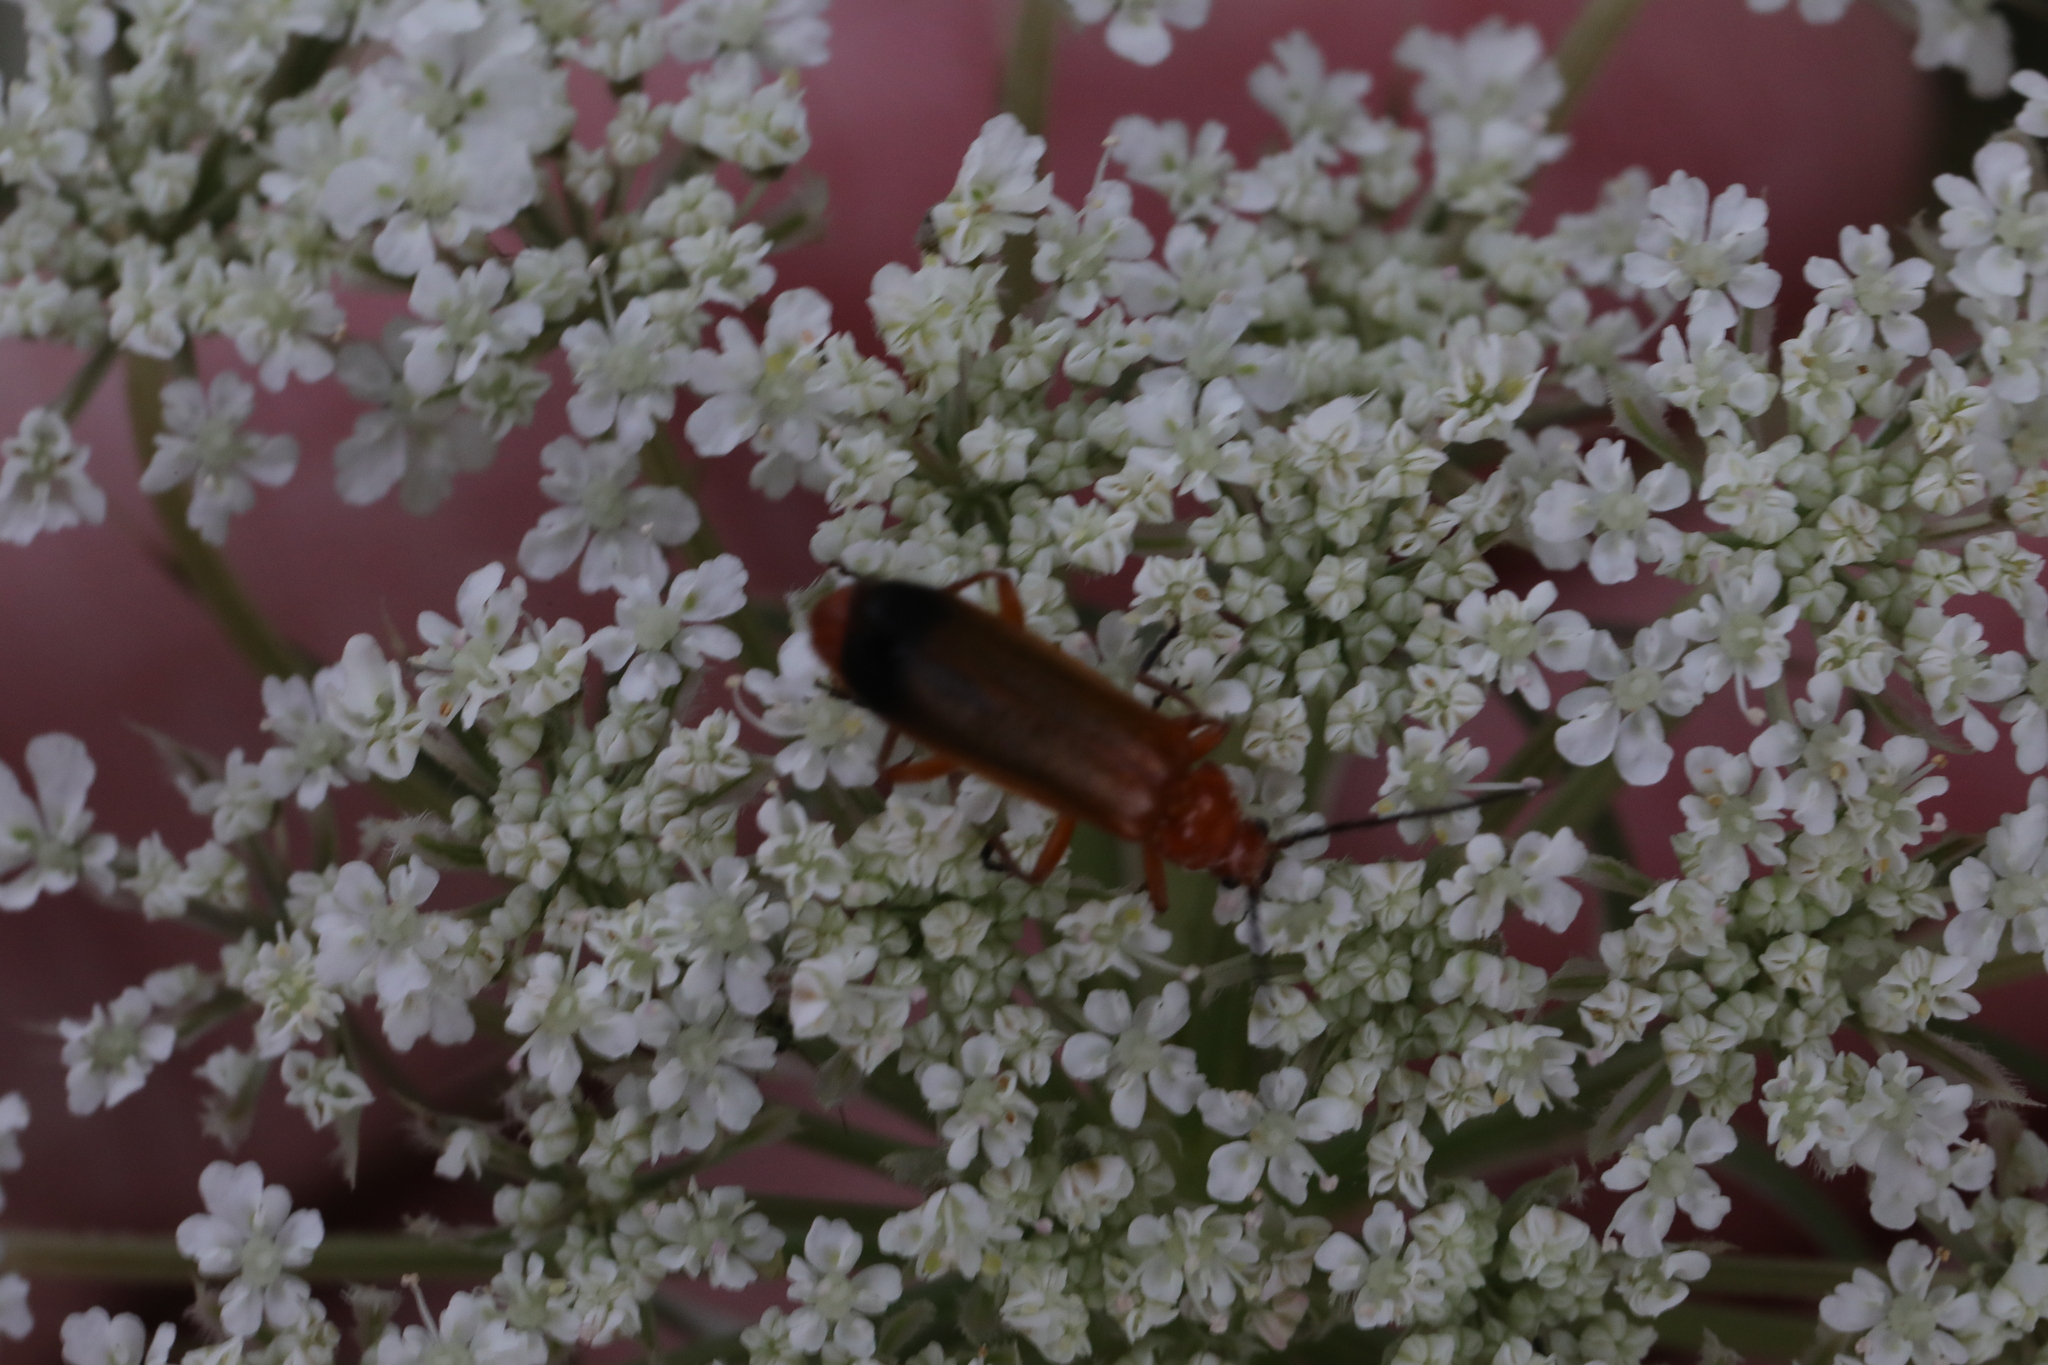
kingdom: Animalia
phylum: Arthropoda
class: Insecta
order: Coleoptera
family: Cantharidae
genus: Rhagonycha
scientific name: Rhagonycha fulva
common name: Common red soldier beetle
